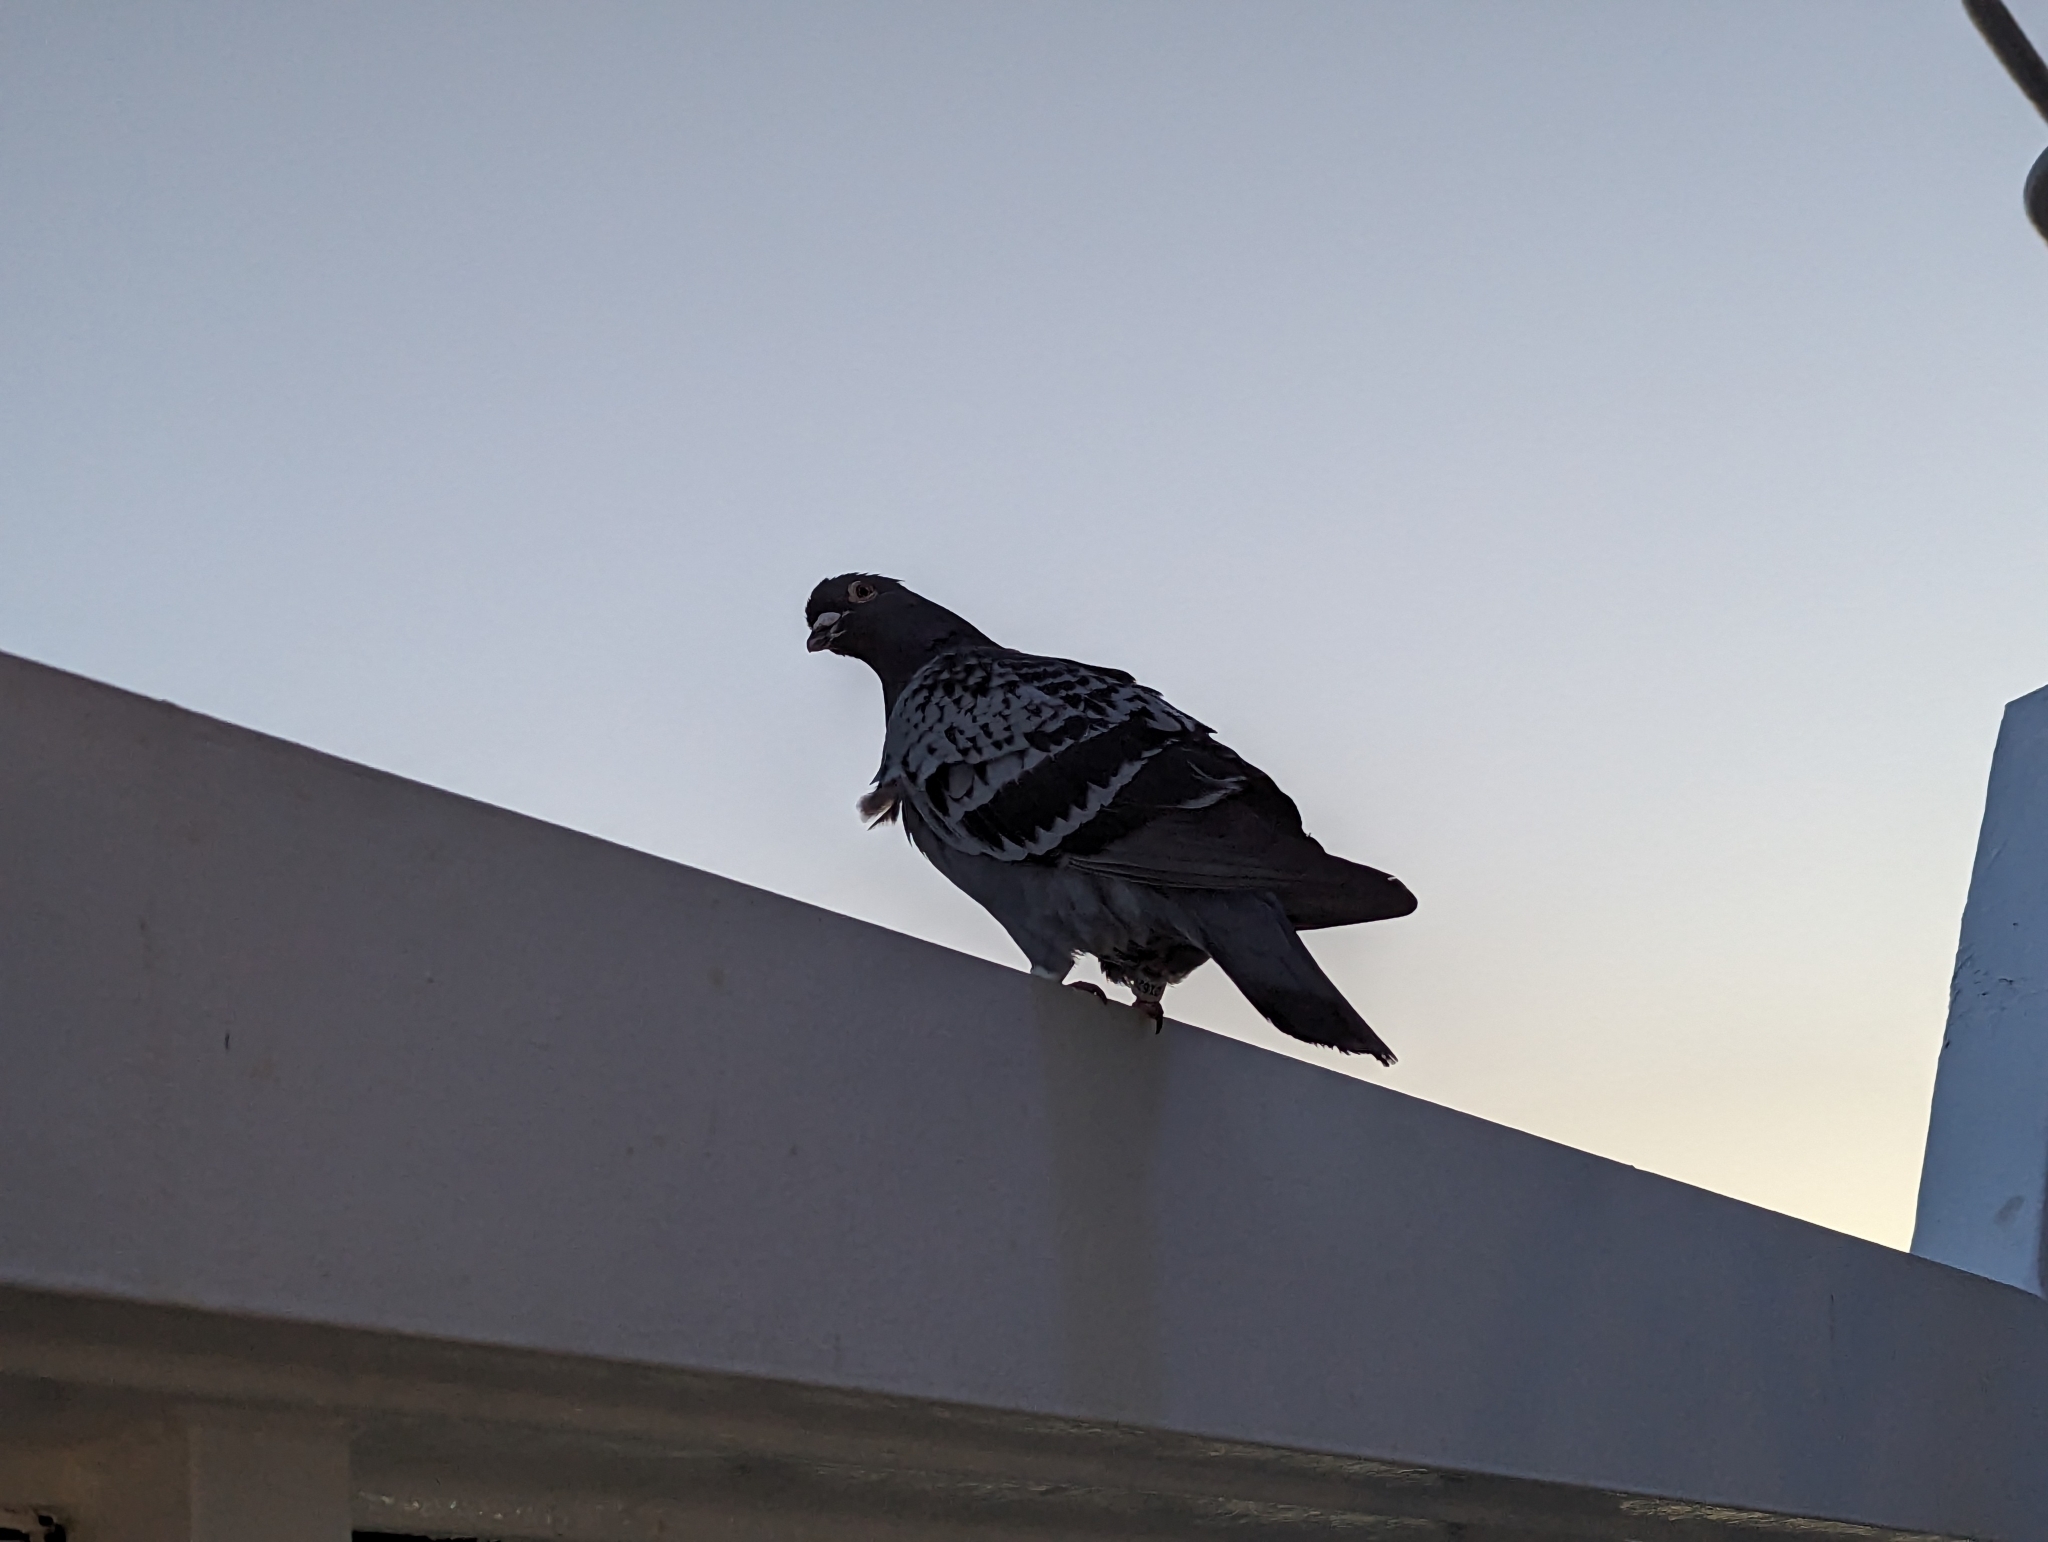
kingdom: Animalia
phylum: Chordata
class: Aves
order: Columbiformes
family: Columbidae
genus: Columba
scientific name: Columba livia
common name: Rock pigeon
